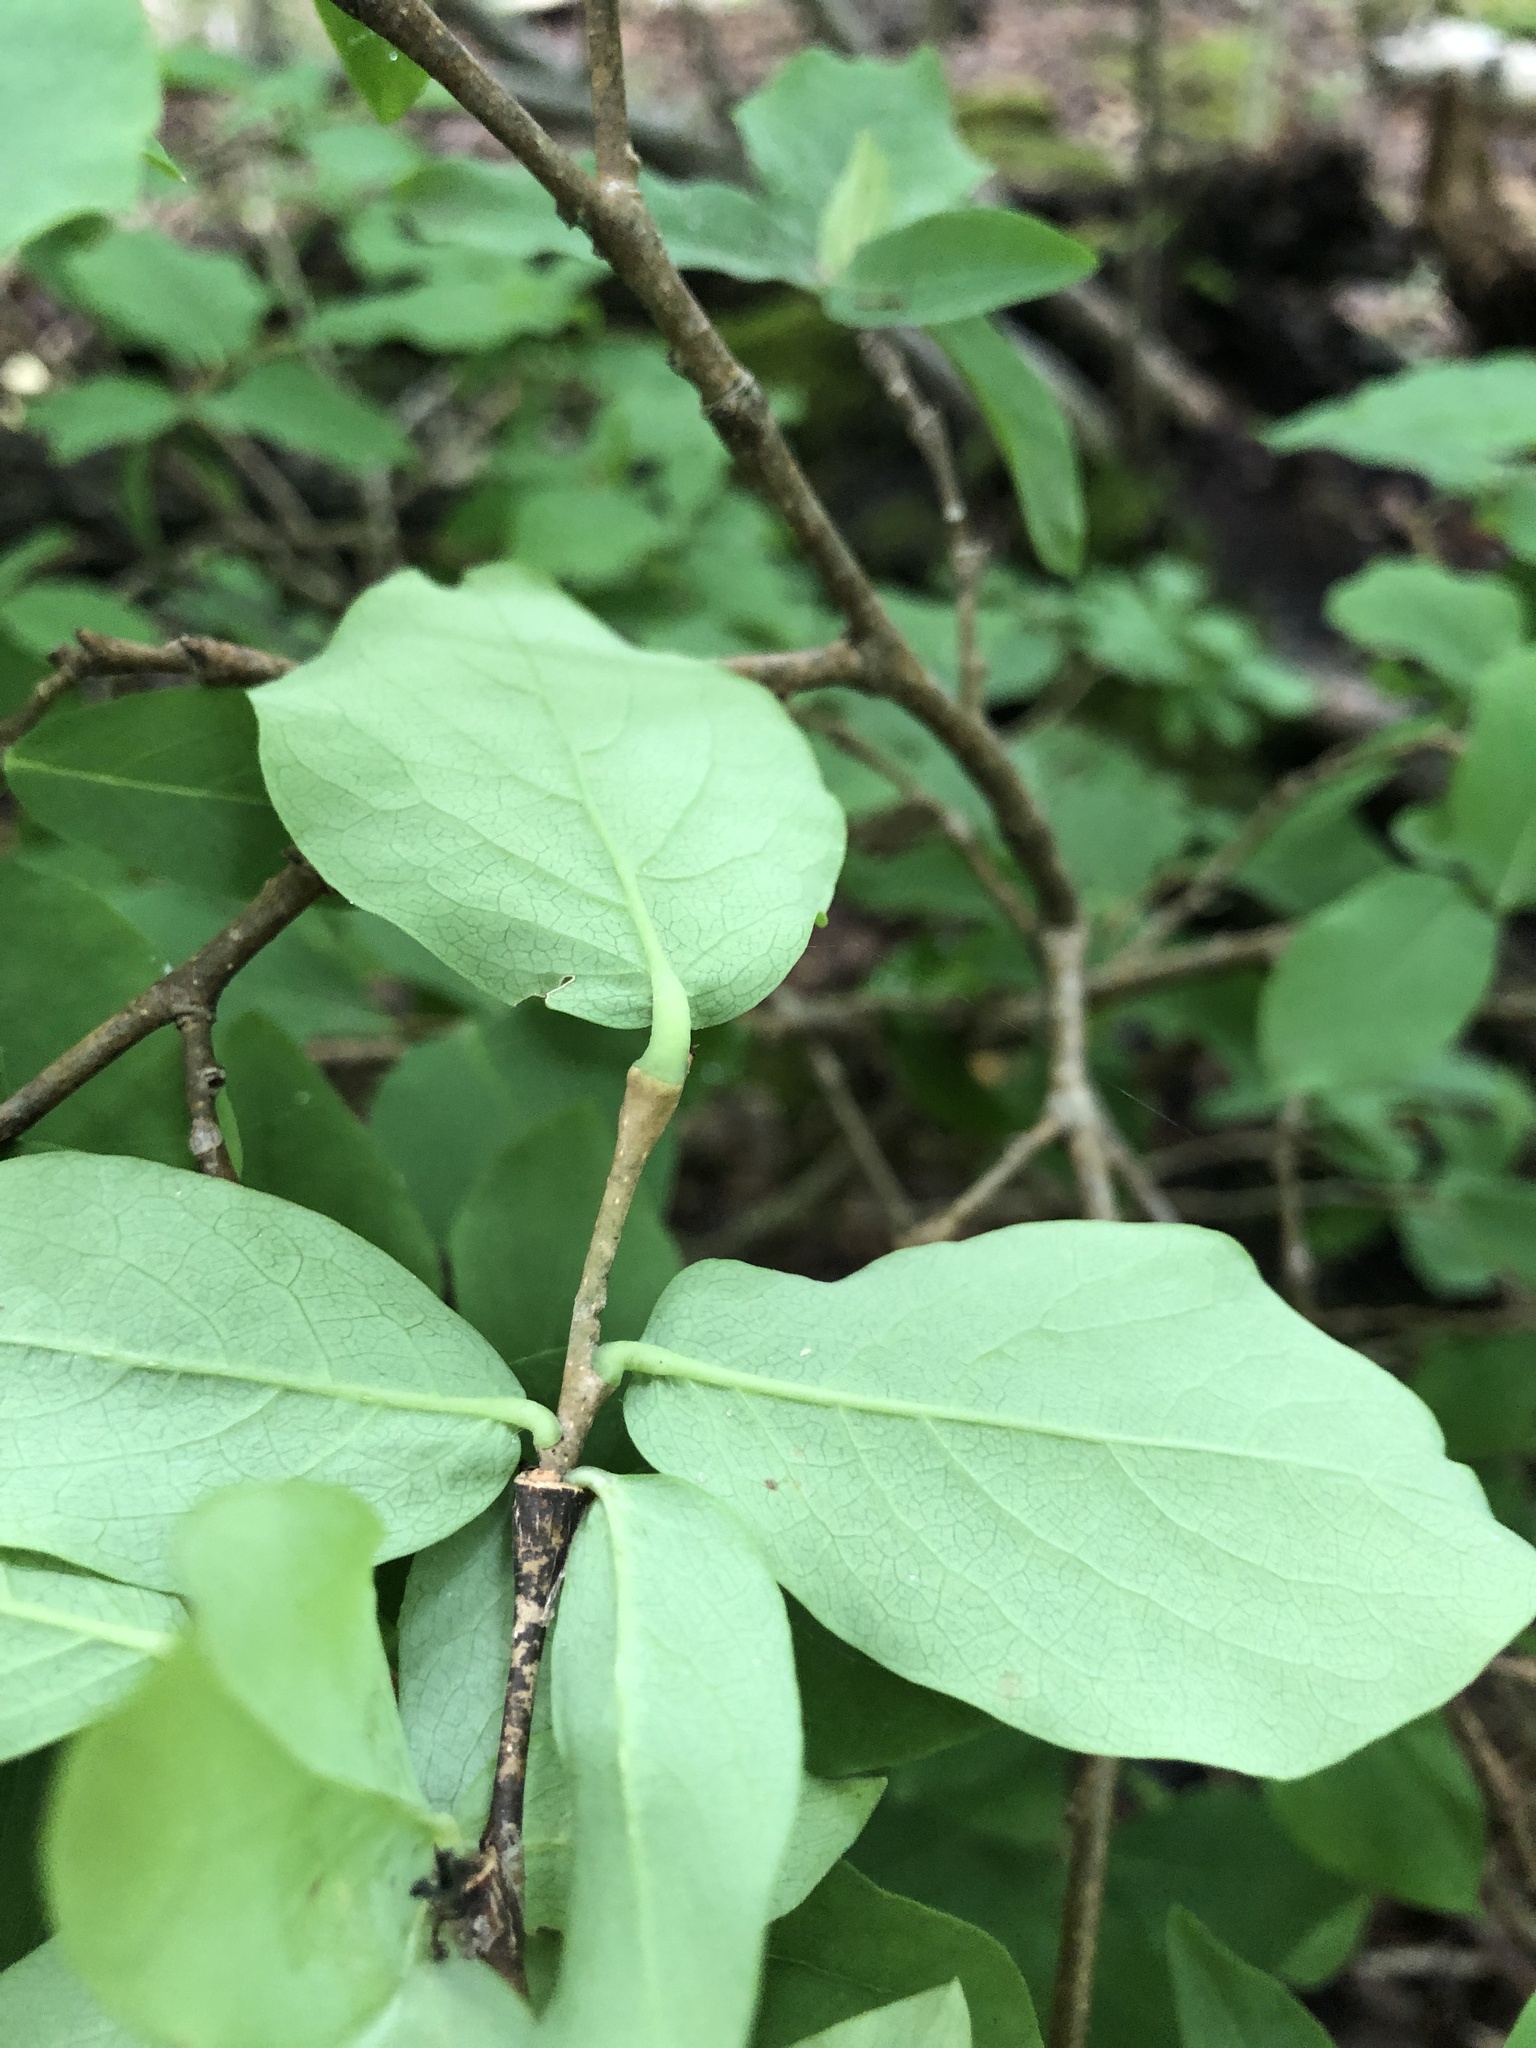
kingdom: Plantae
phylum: Tracheophyta
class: Magnoliopsida
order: Malvales
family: Thymelaeaceae
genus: Dirca
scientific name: Dirca palustris
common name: Leatherwood
